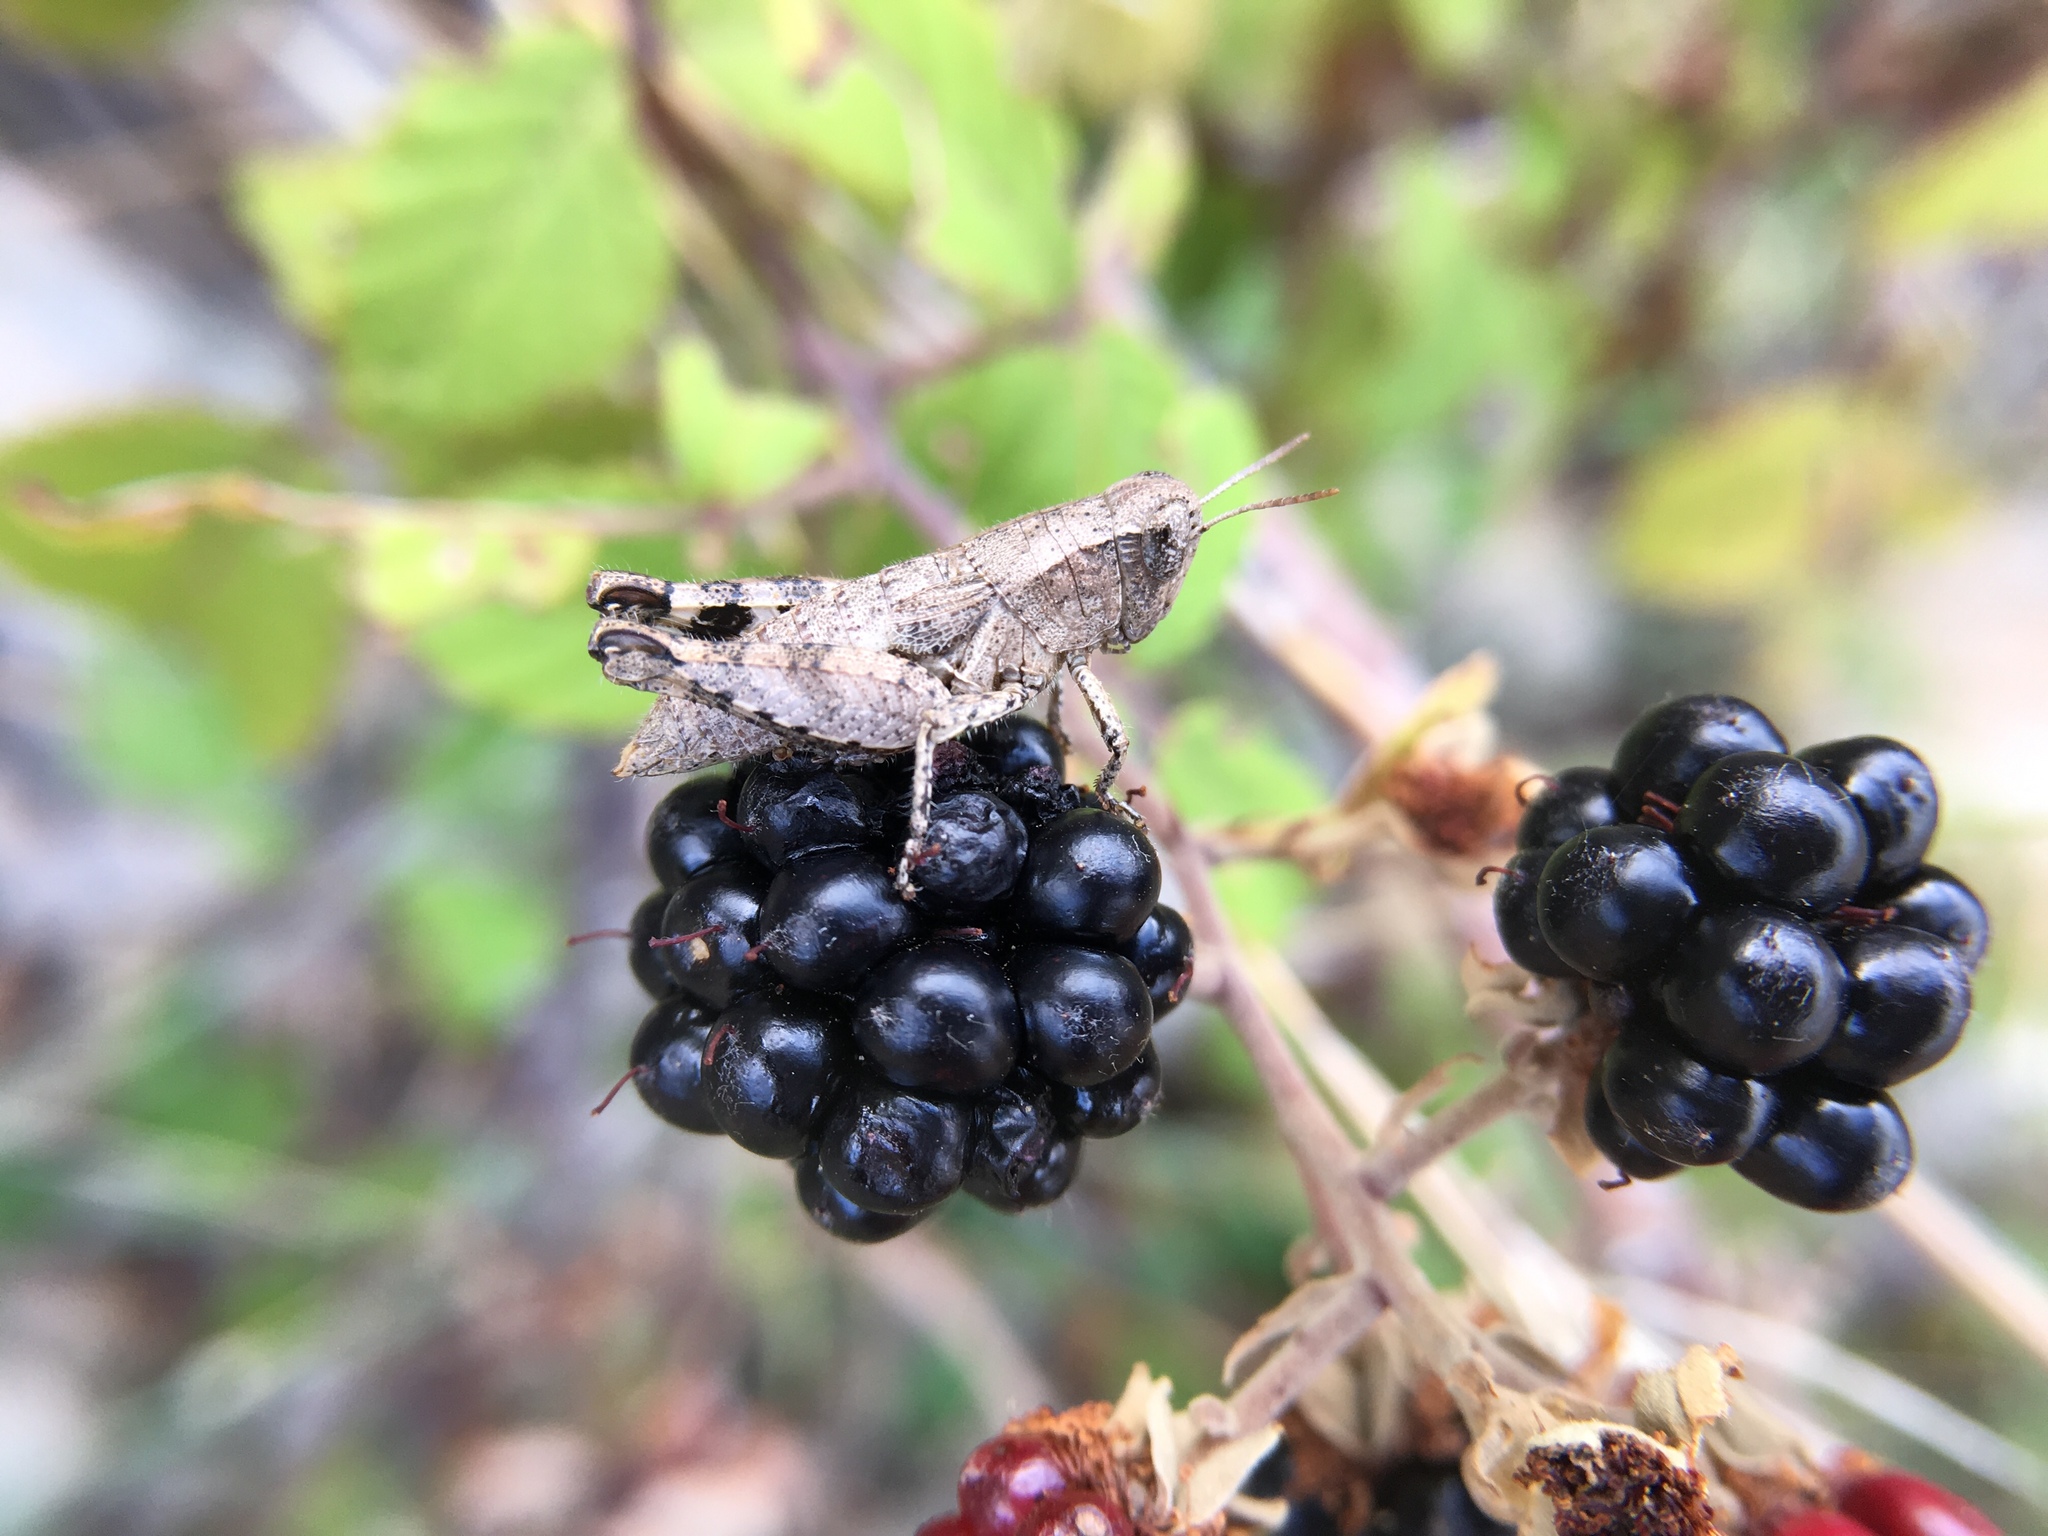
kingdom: Animalia
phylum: Arthropoda
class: Insecta
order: Orthoptera
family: Acrididae
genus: Pezotettix
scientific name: Pezotettix giornae
